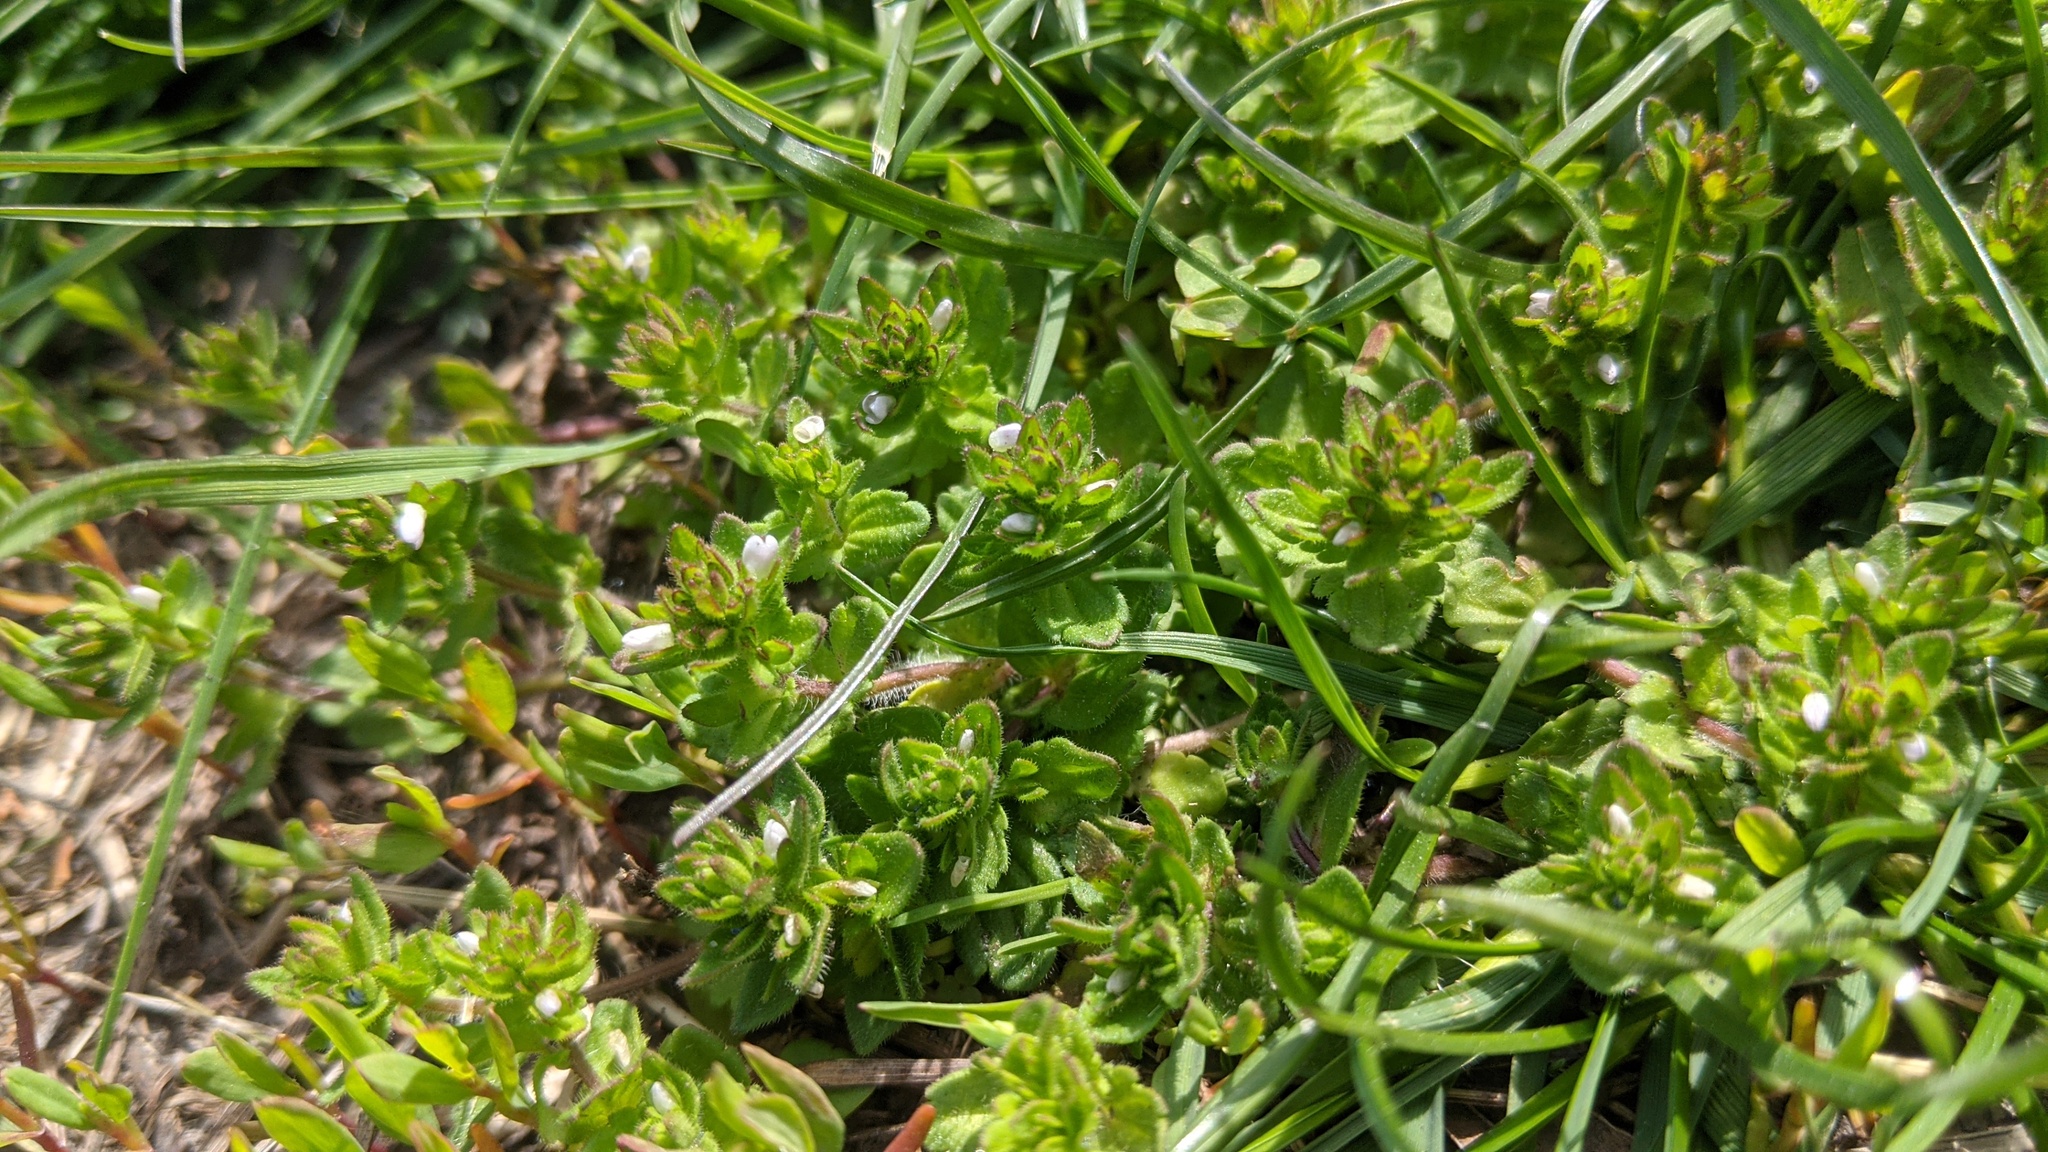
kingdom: Plantae
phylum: Tracheophyta
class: Magnoliopsida
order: Lamiales
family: Plantaginaceae
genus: Veronica
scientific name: Veronica arvensis
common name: Corn speedwell
